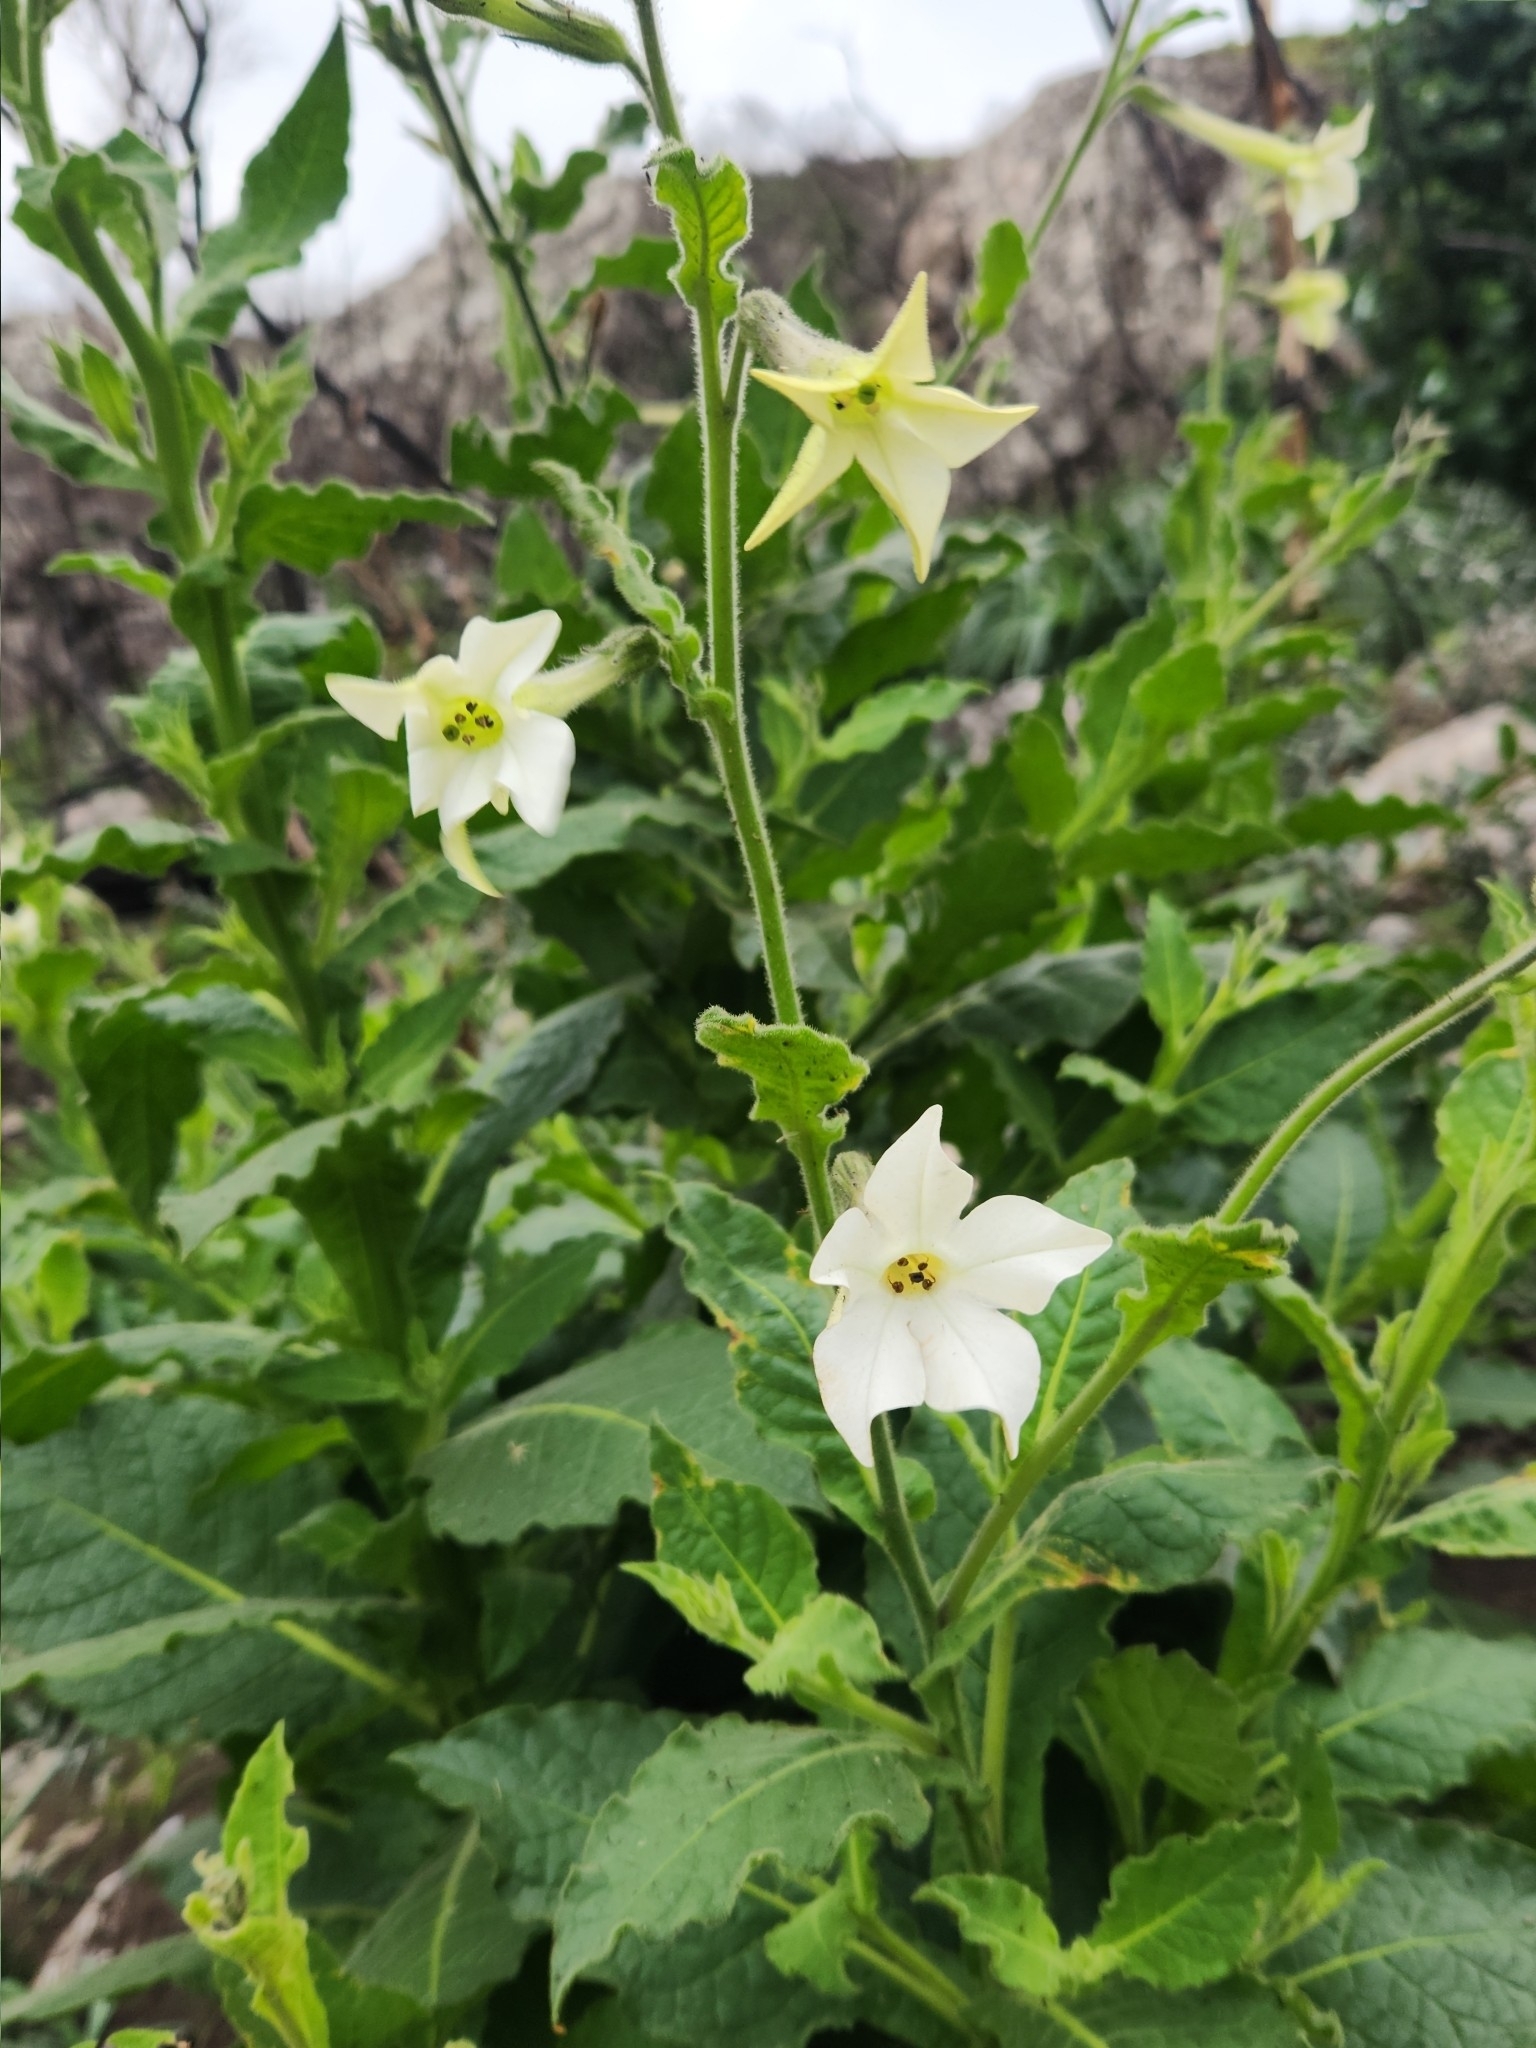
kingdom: Plantae
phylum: Tracheophyta
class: Magnoliopsida
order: Solanales
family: Solanaceae
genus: Nicotiana
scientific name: Nicotiana alata
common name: Jasmine tobacco
